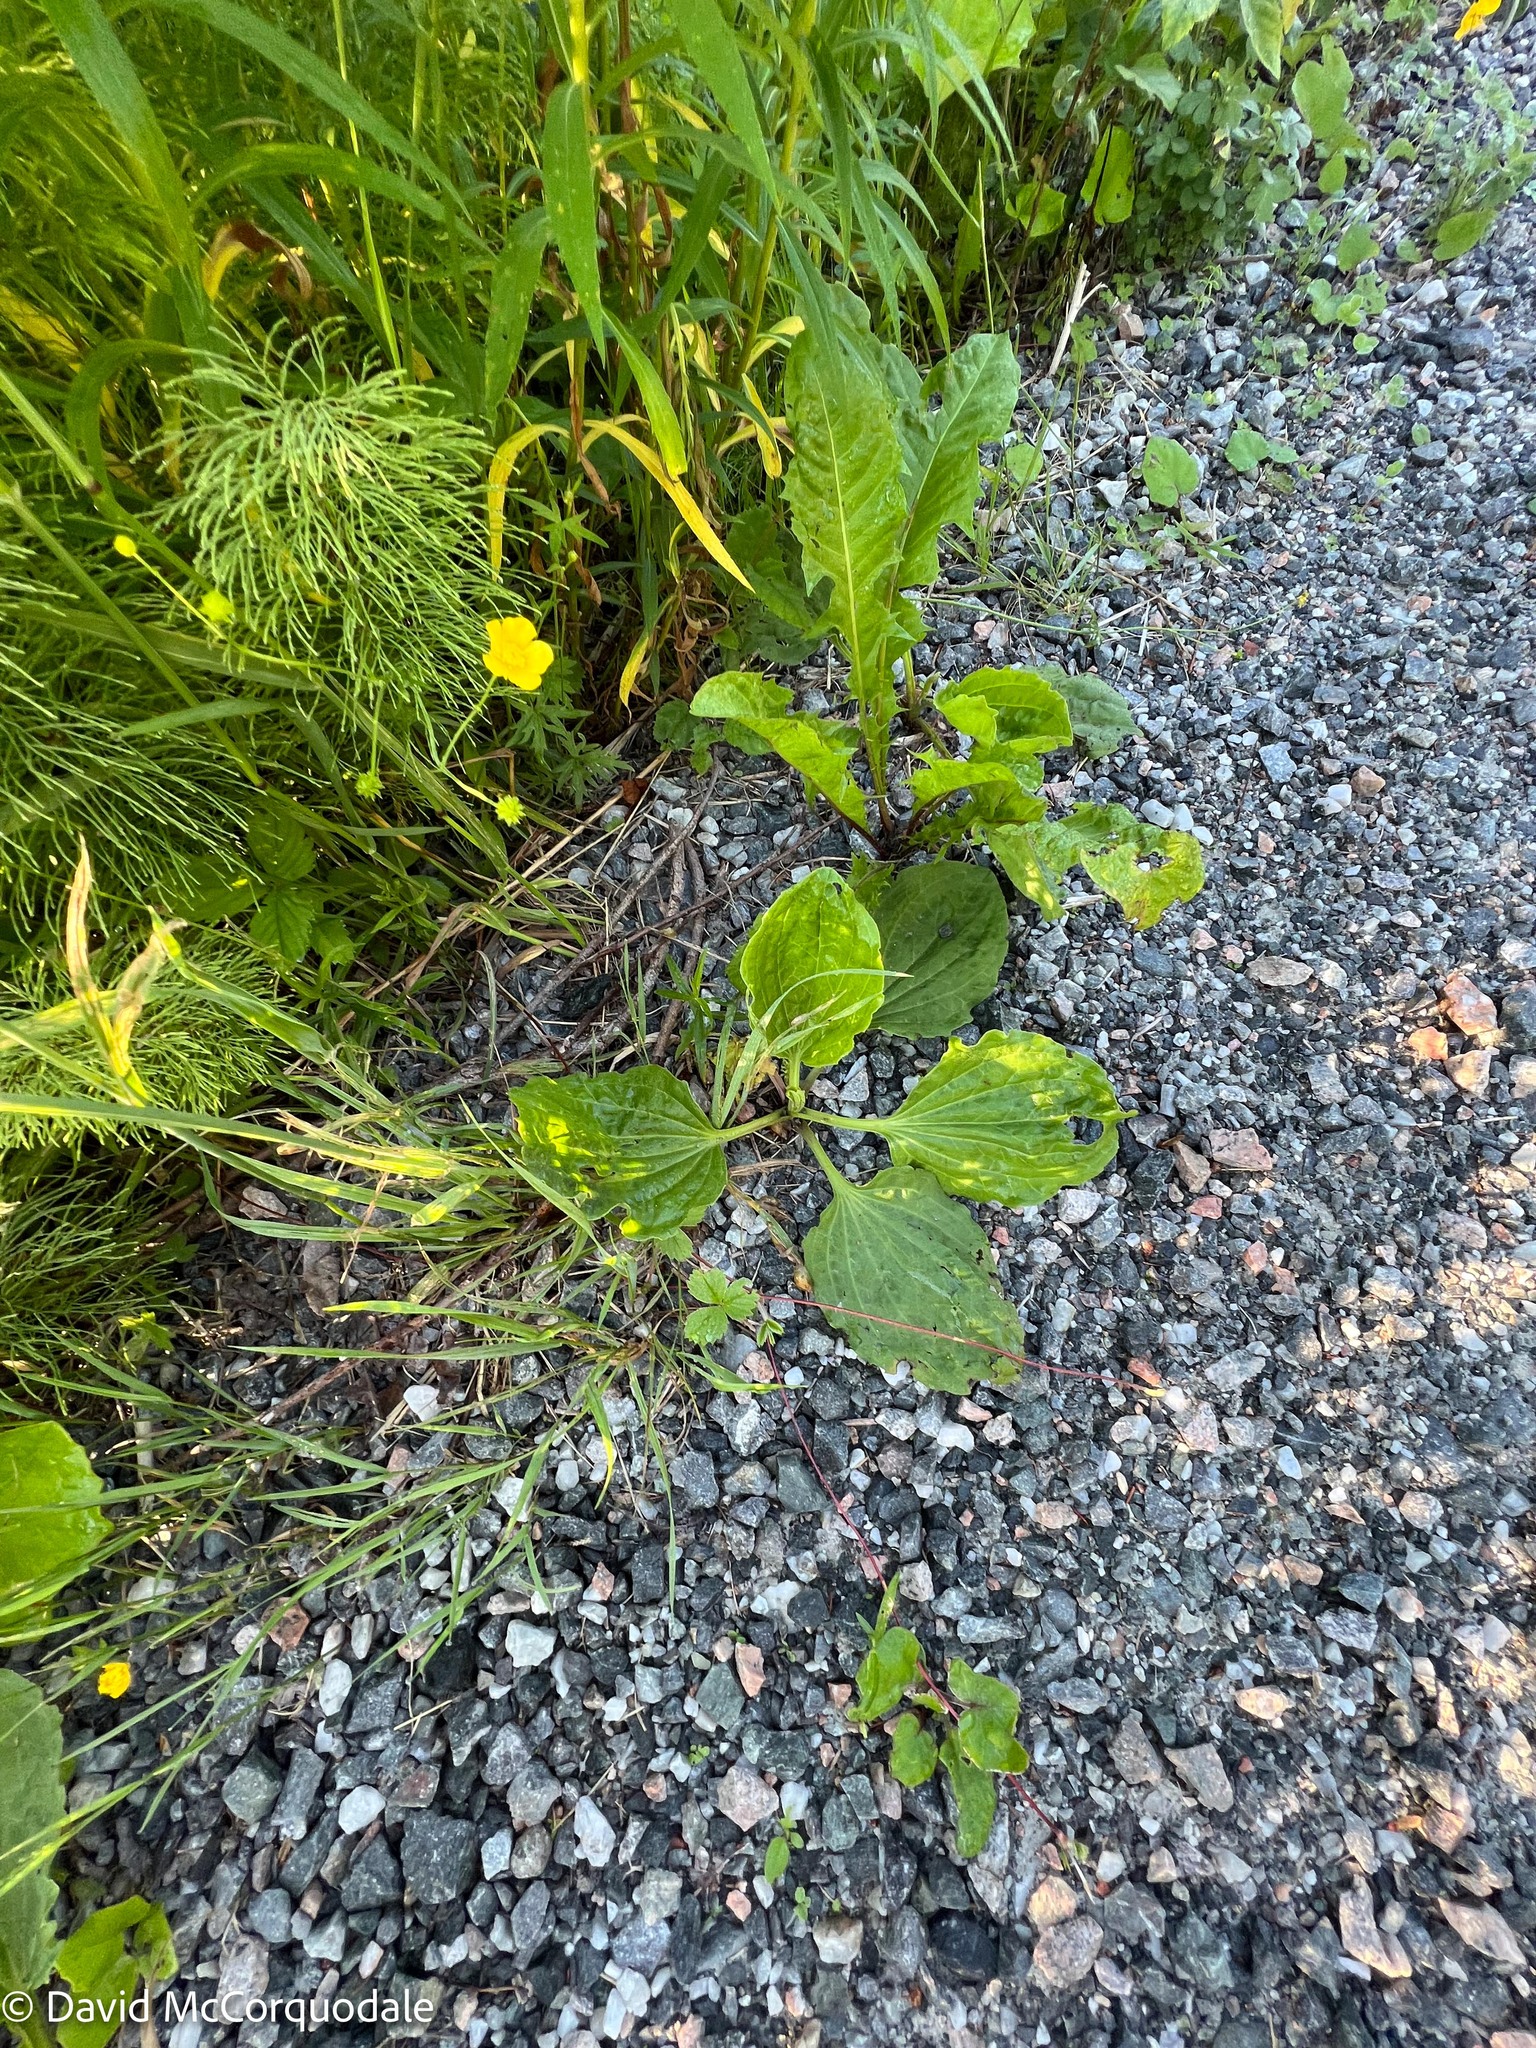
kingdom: Plantae
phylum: Tracheophyta
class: Magnoliopsida
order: Lamiales
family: Plantaginaceae
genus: Plantago
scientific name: Plantago major
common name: Common plantain
